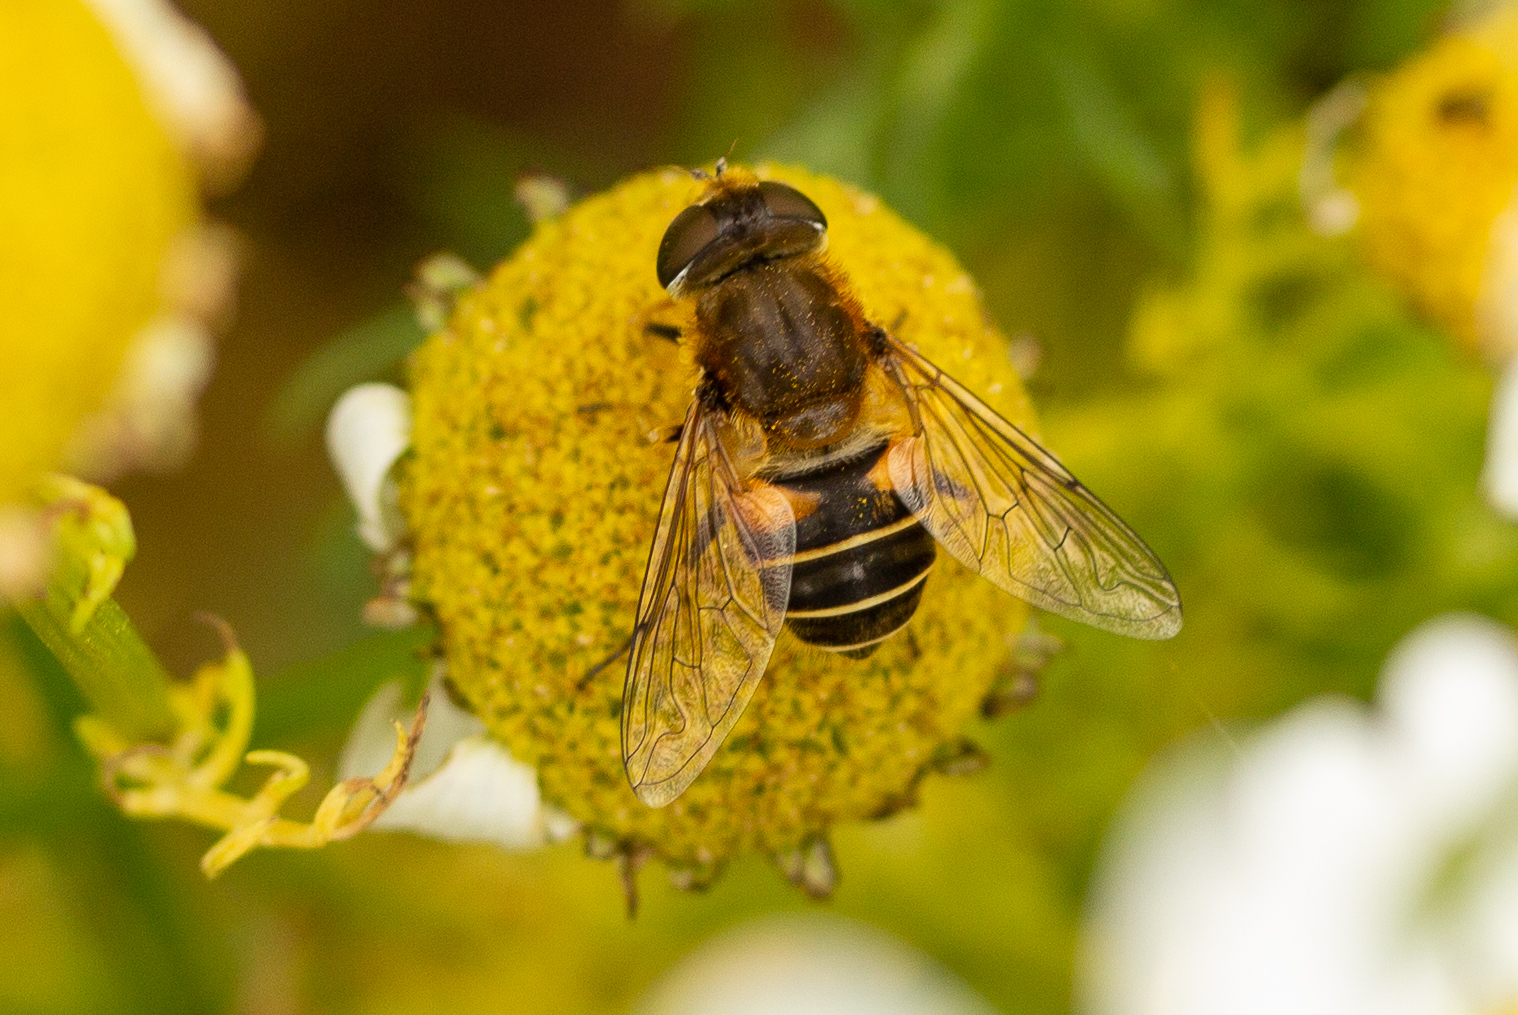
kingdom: Animalia
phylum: Arthropoda
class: Insecta
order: Diptera
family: Syrphidae
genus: Eristalis
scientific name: Eristalis nemorum
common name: Orange-spined drone fly
